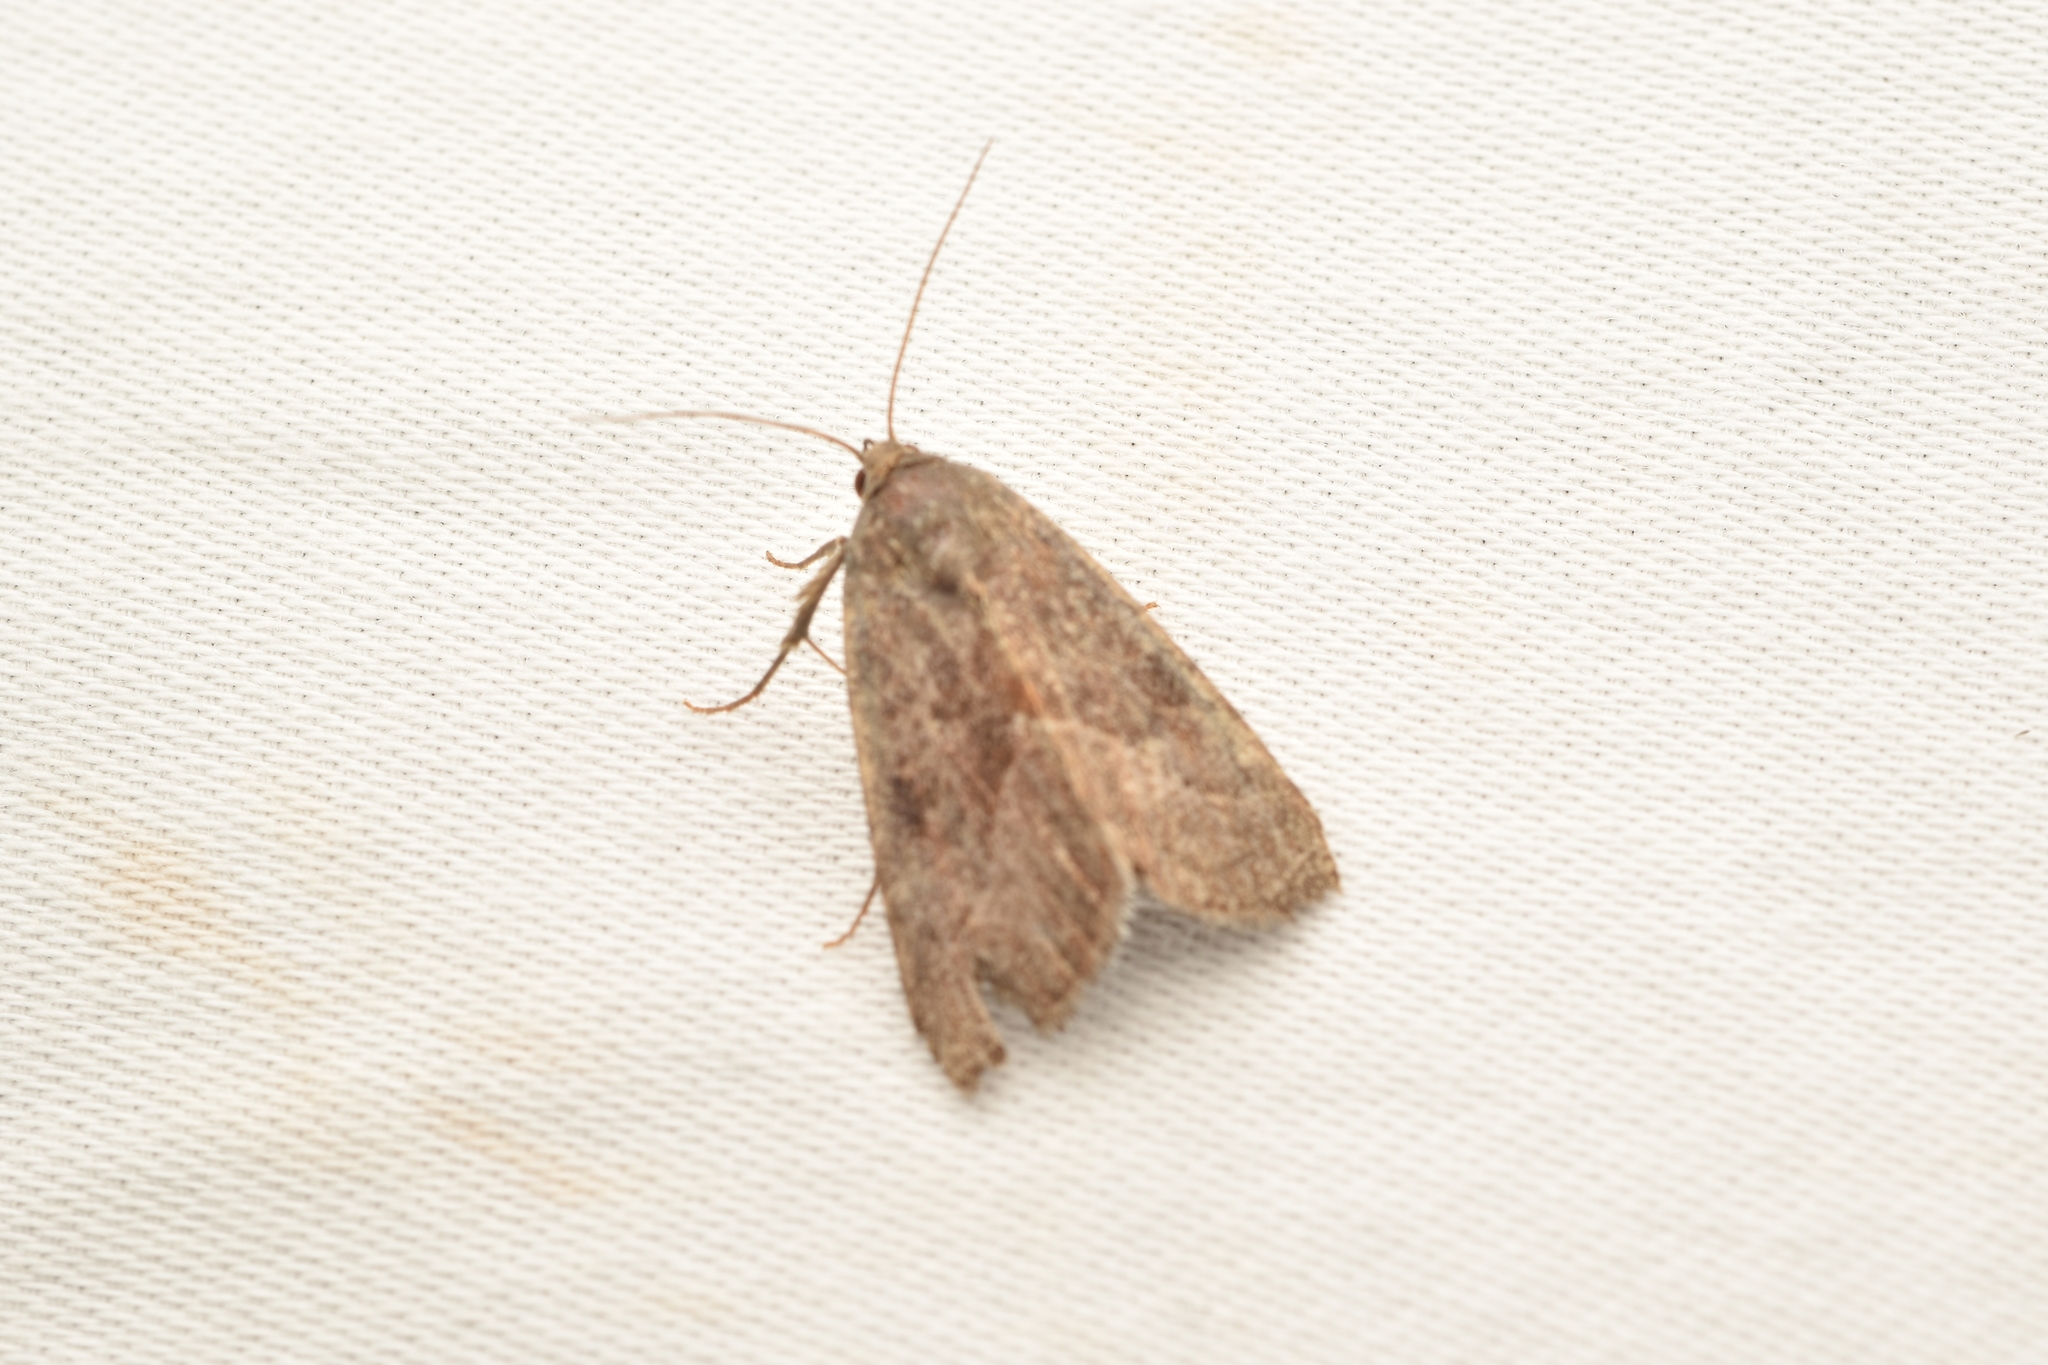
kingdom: Animalia
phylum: Arthropoda
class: Insecta
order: Lepidoptera
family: Noctuidae
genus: Galgula
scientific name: Galgula partita
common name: Wedgeling
